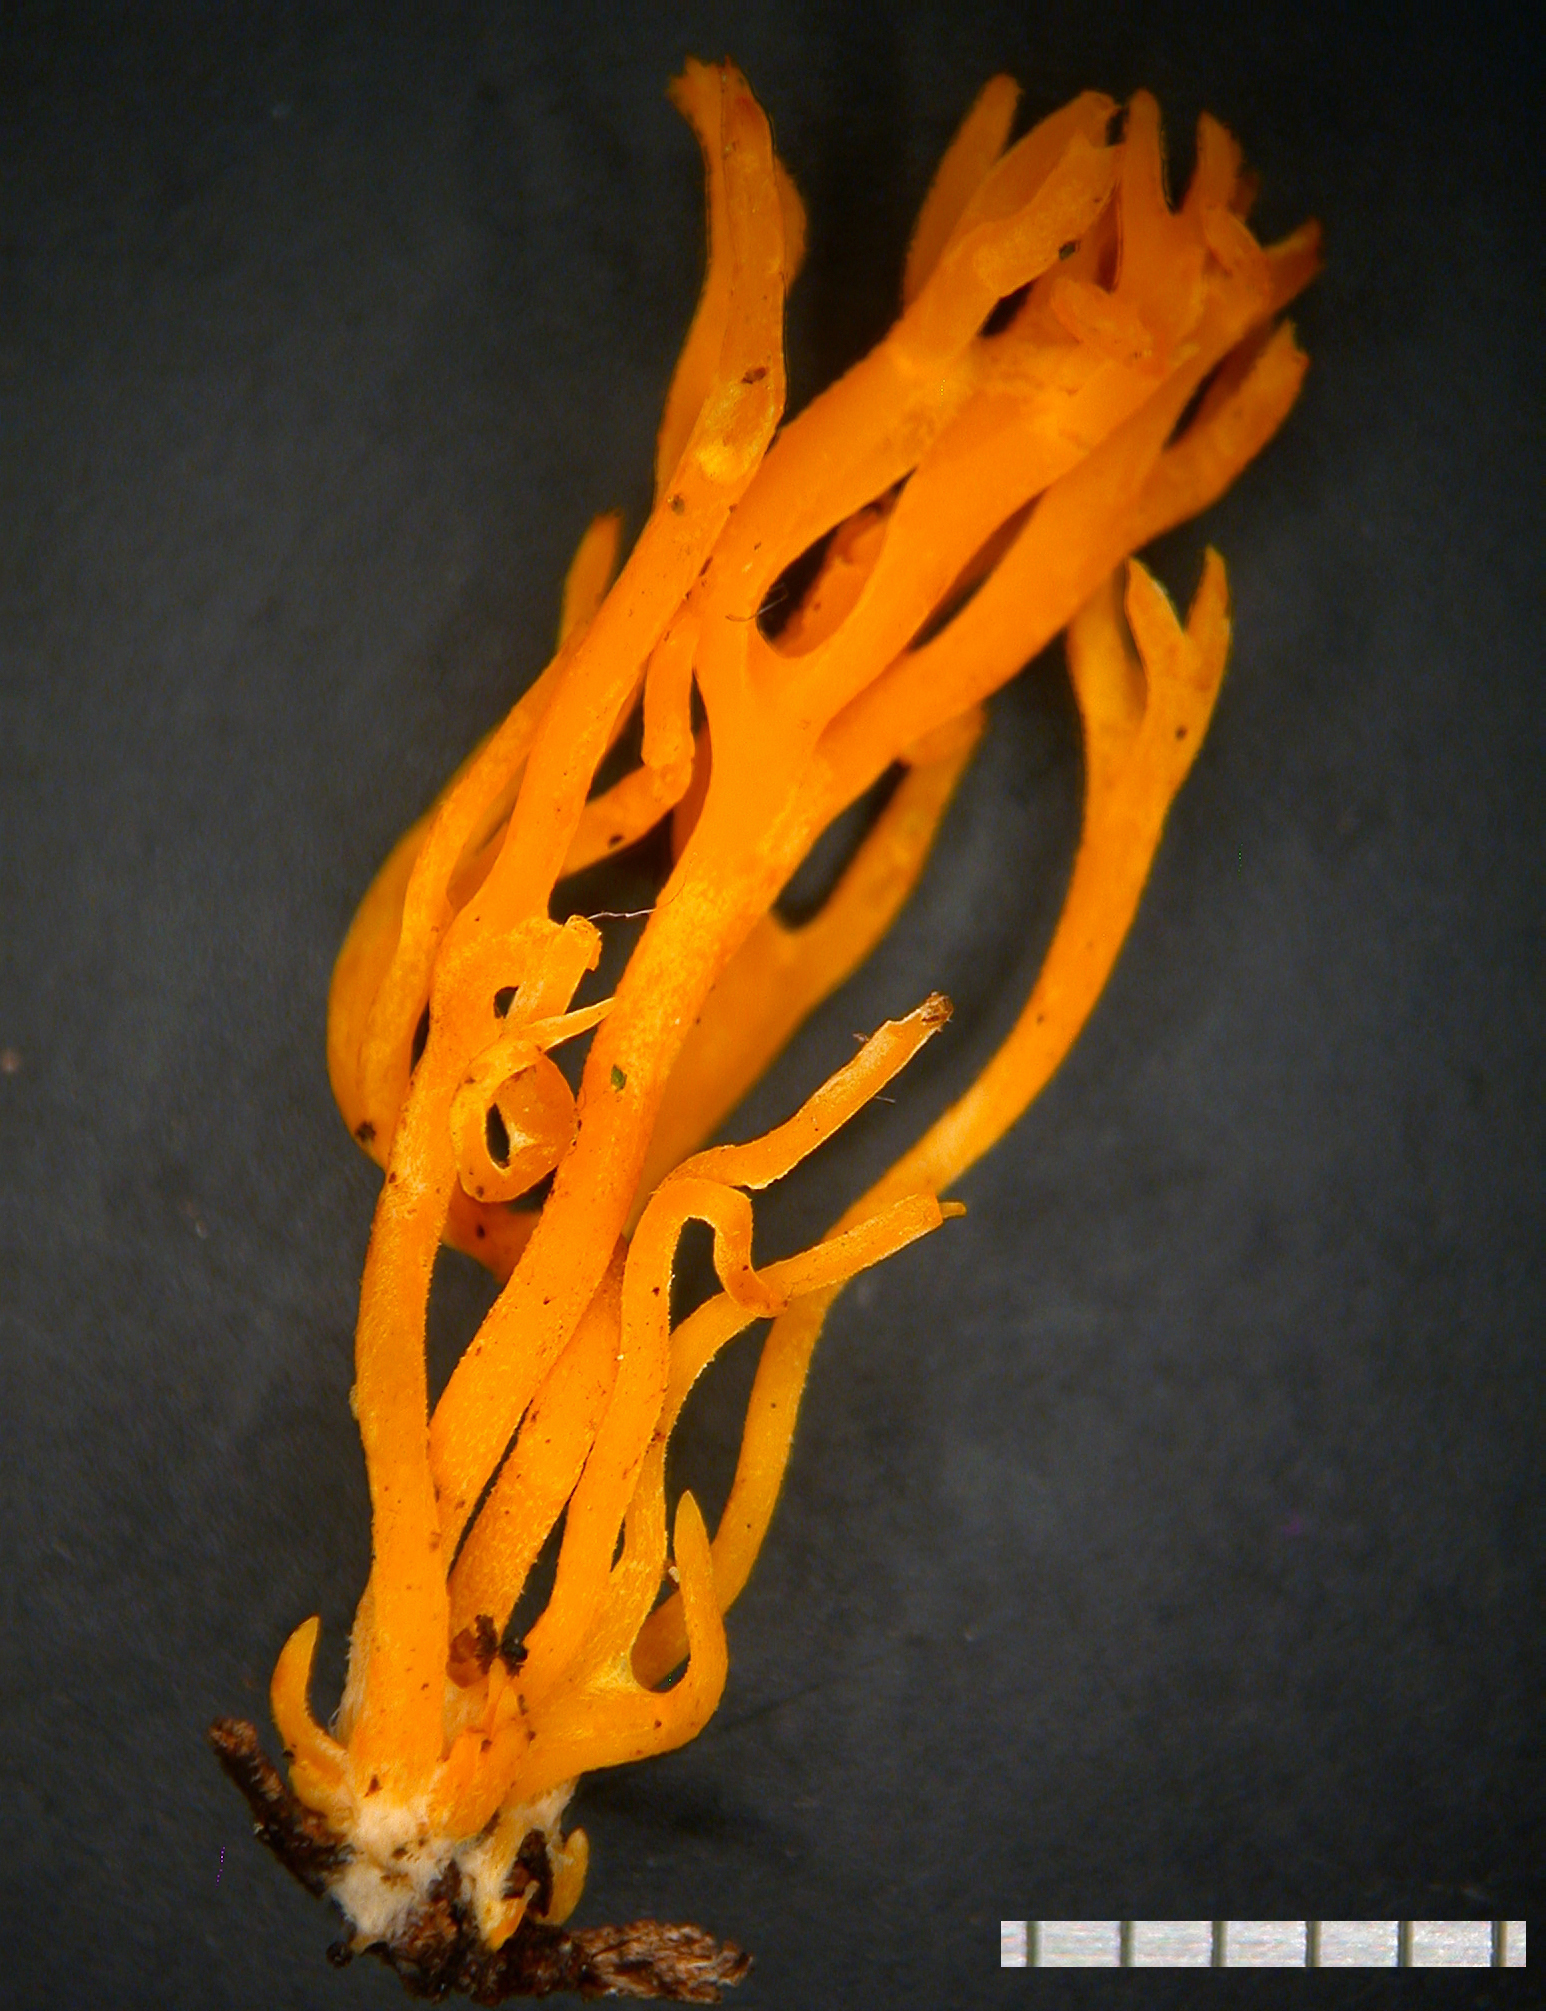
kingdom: Fungi
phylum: Basidiomycota
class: Agaricomycetes
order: Agaricales
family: Clavariaceae
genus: Ramariopsis
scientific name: Ramariopsis
